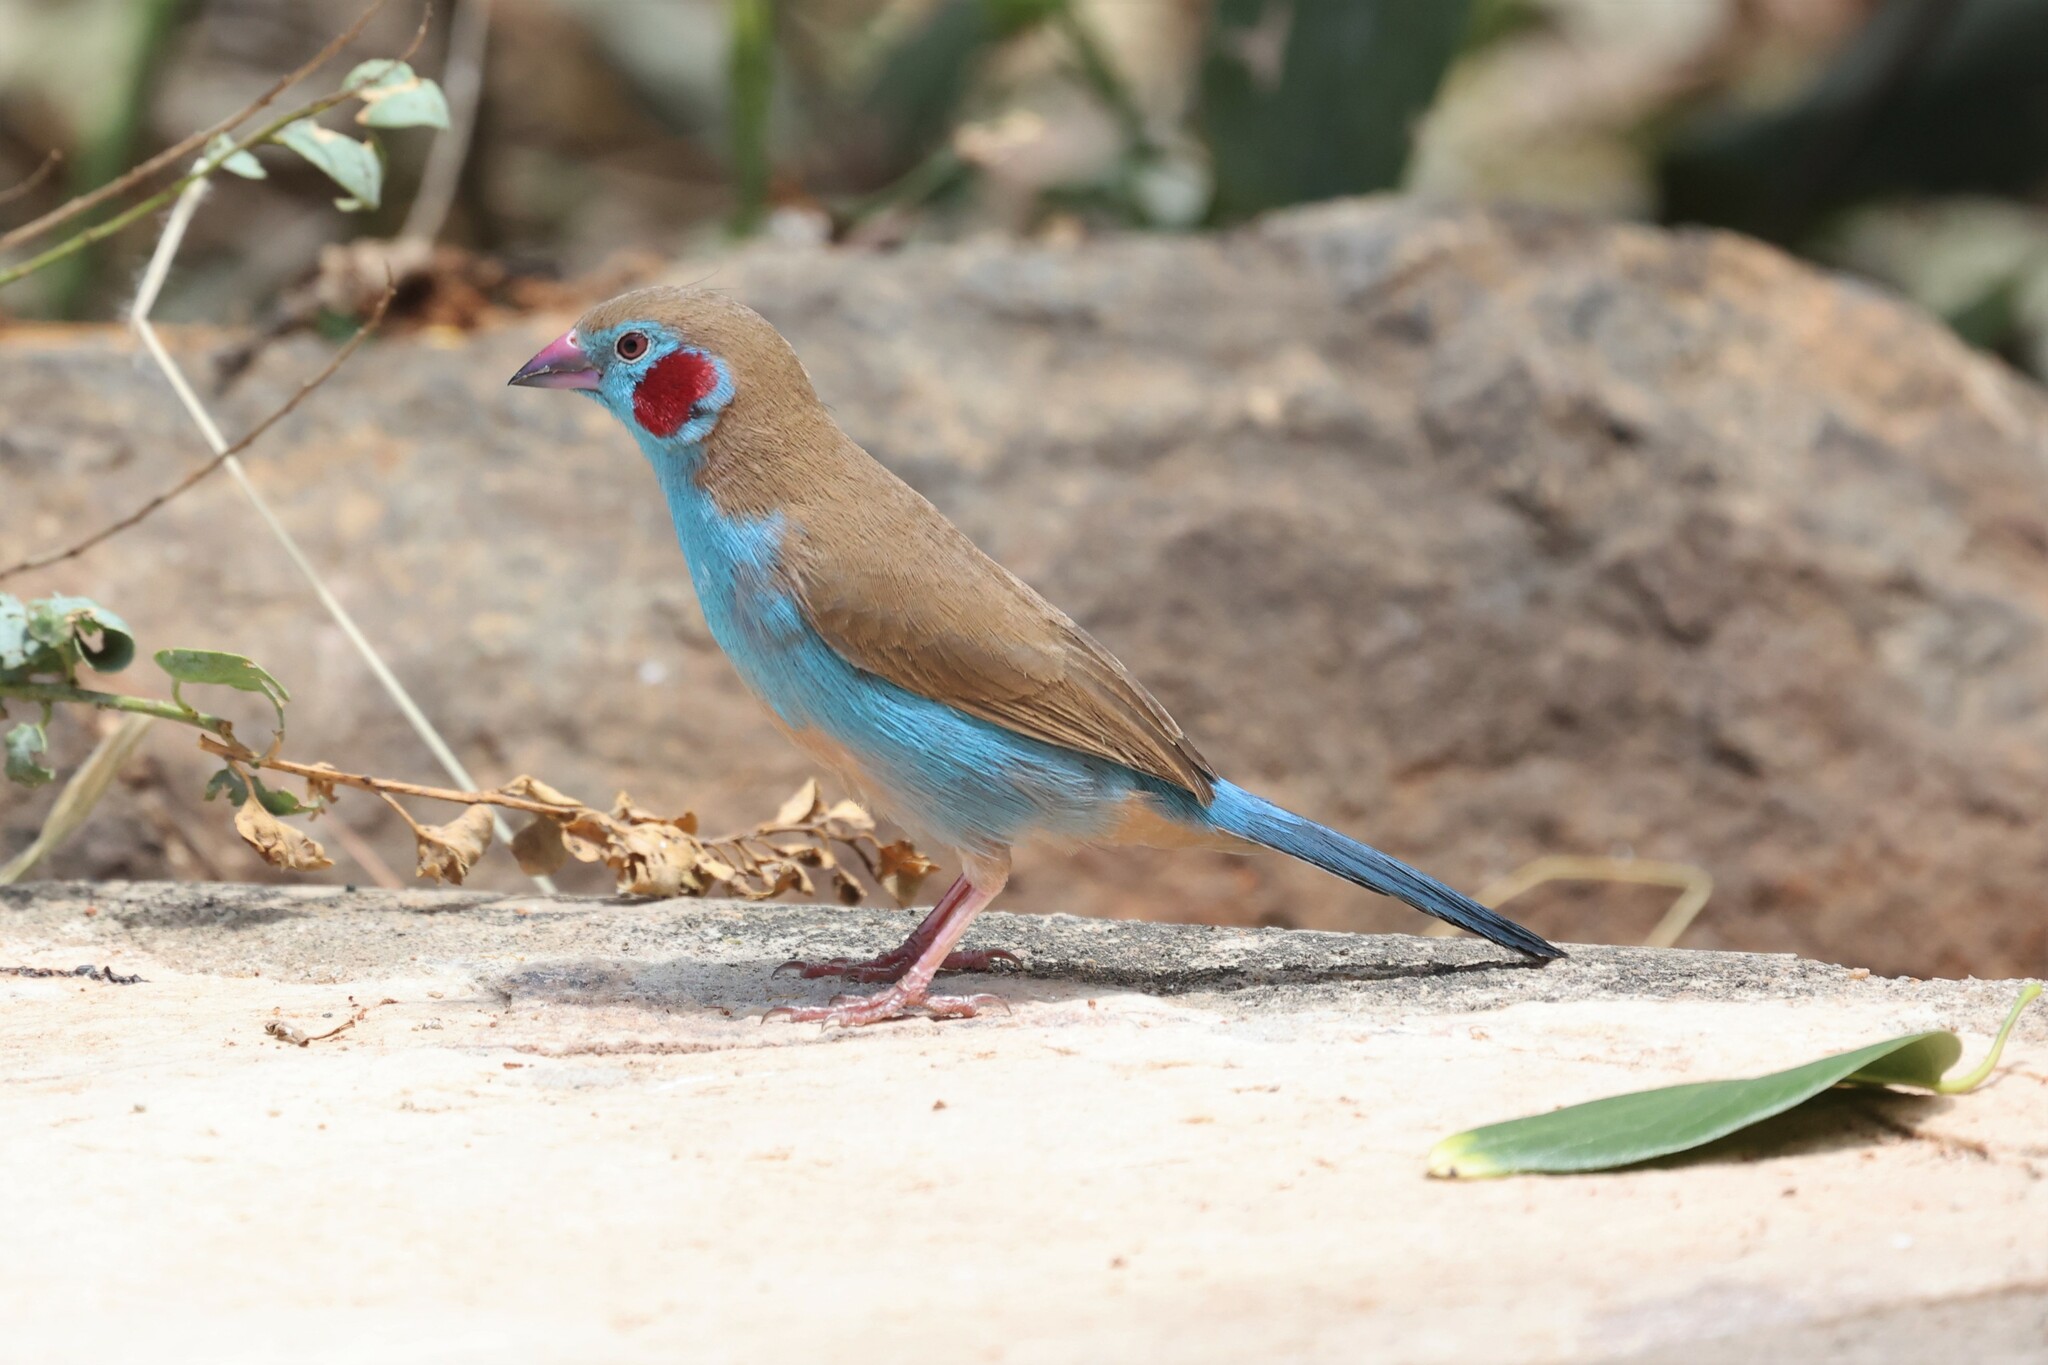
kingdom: Animalia
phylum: Chordata
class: Aves
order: Passeriformes
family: Estrildidae
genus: Uraeginthus
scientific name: Uraeginthus bengalus
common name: Red-cheeked cordon-bleu
